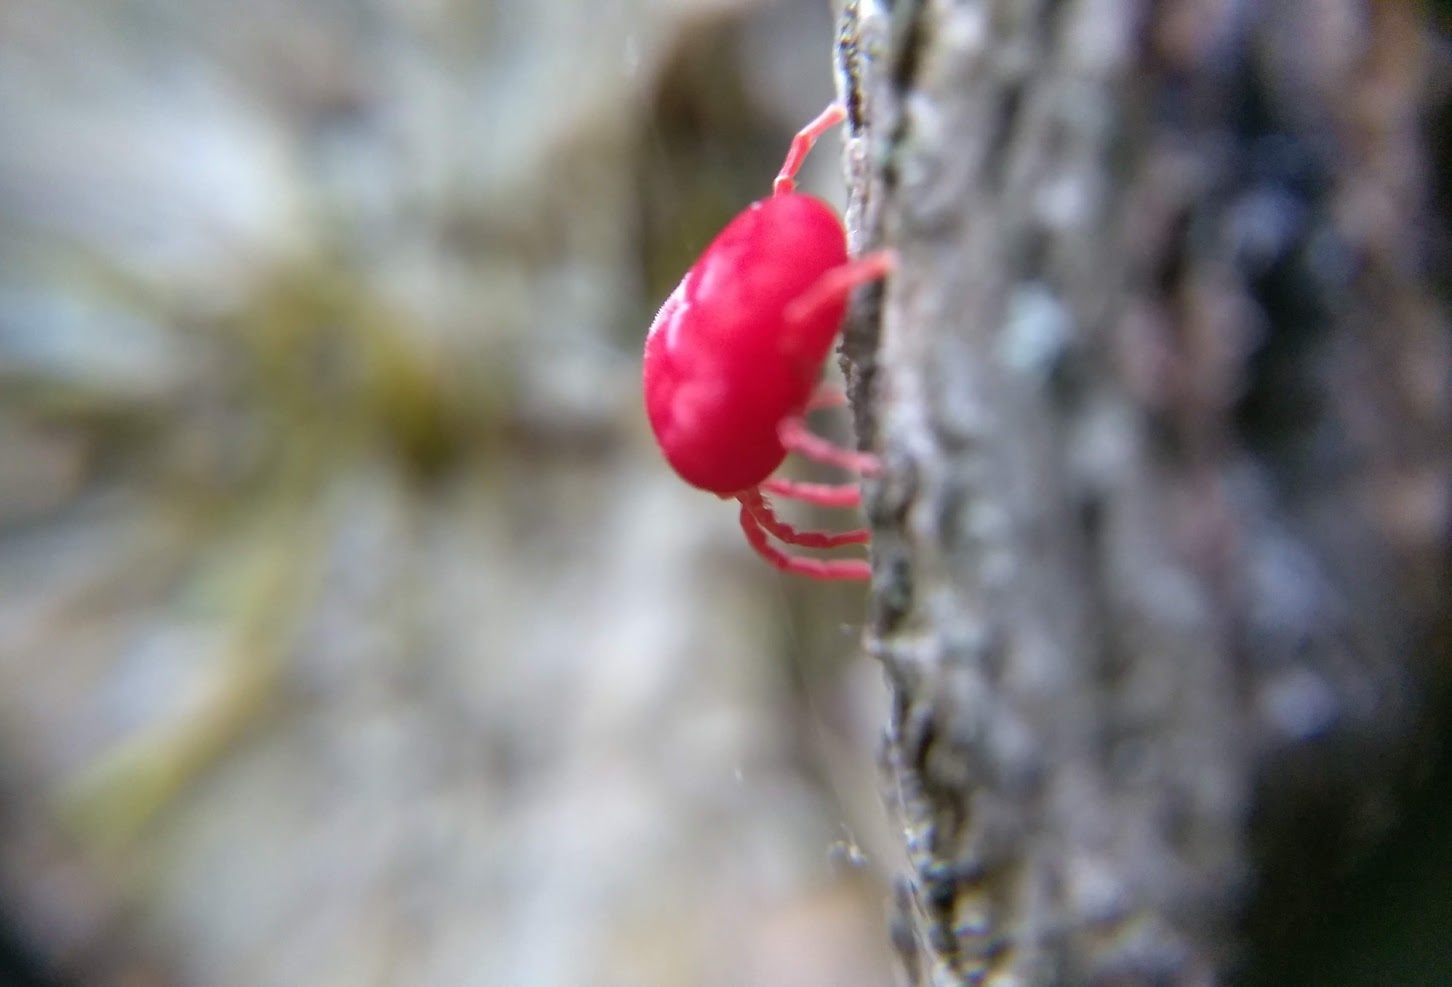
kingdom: Animalia
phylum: Arthropoda
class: Arachnida
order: Trombidiformes
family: Trombidiidae
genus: Trombidium
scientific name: Trombidium
